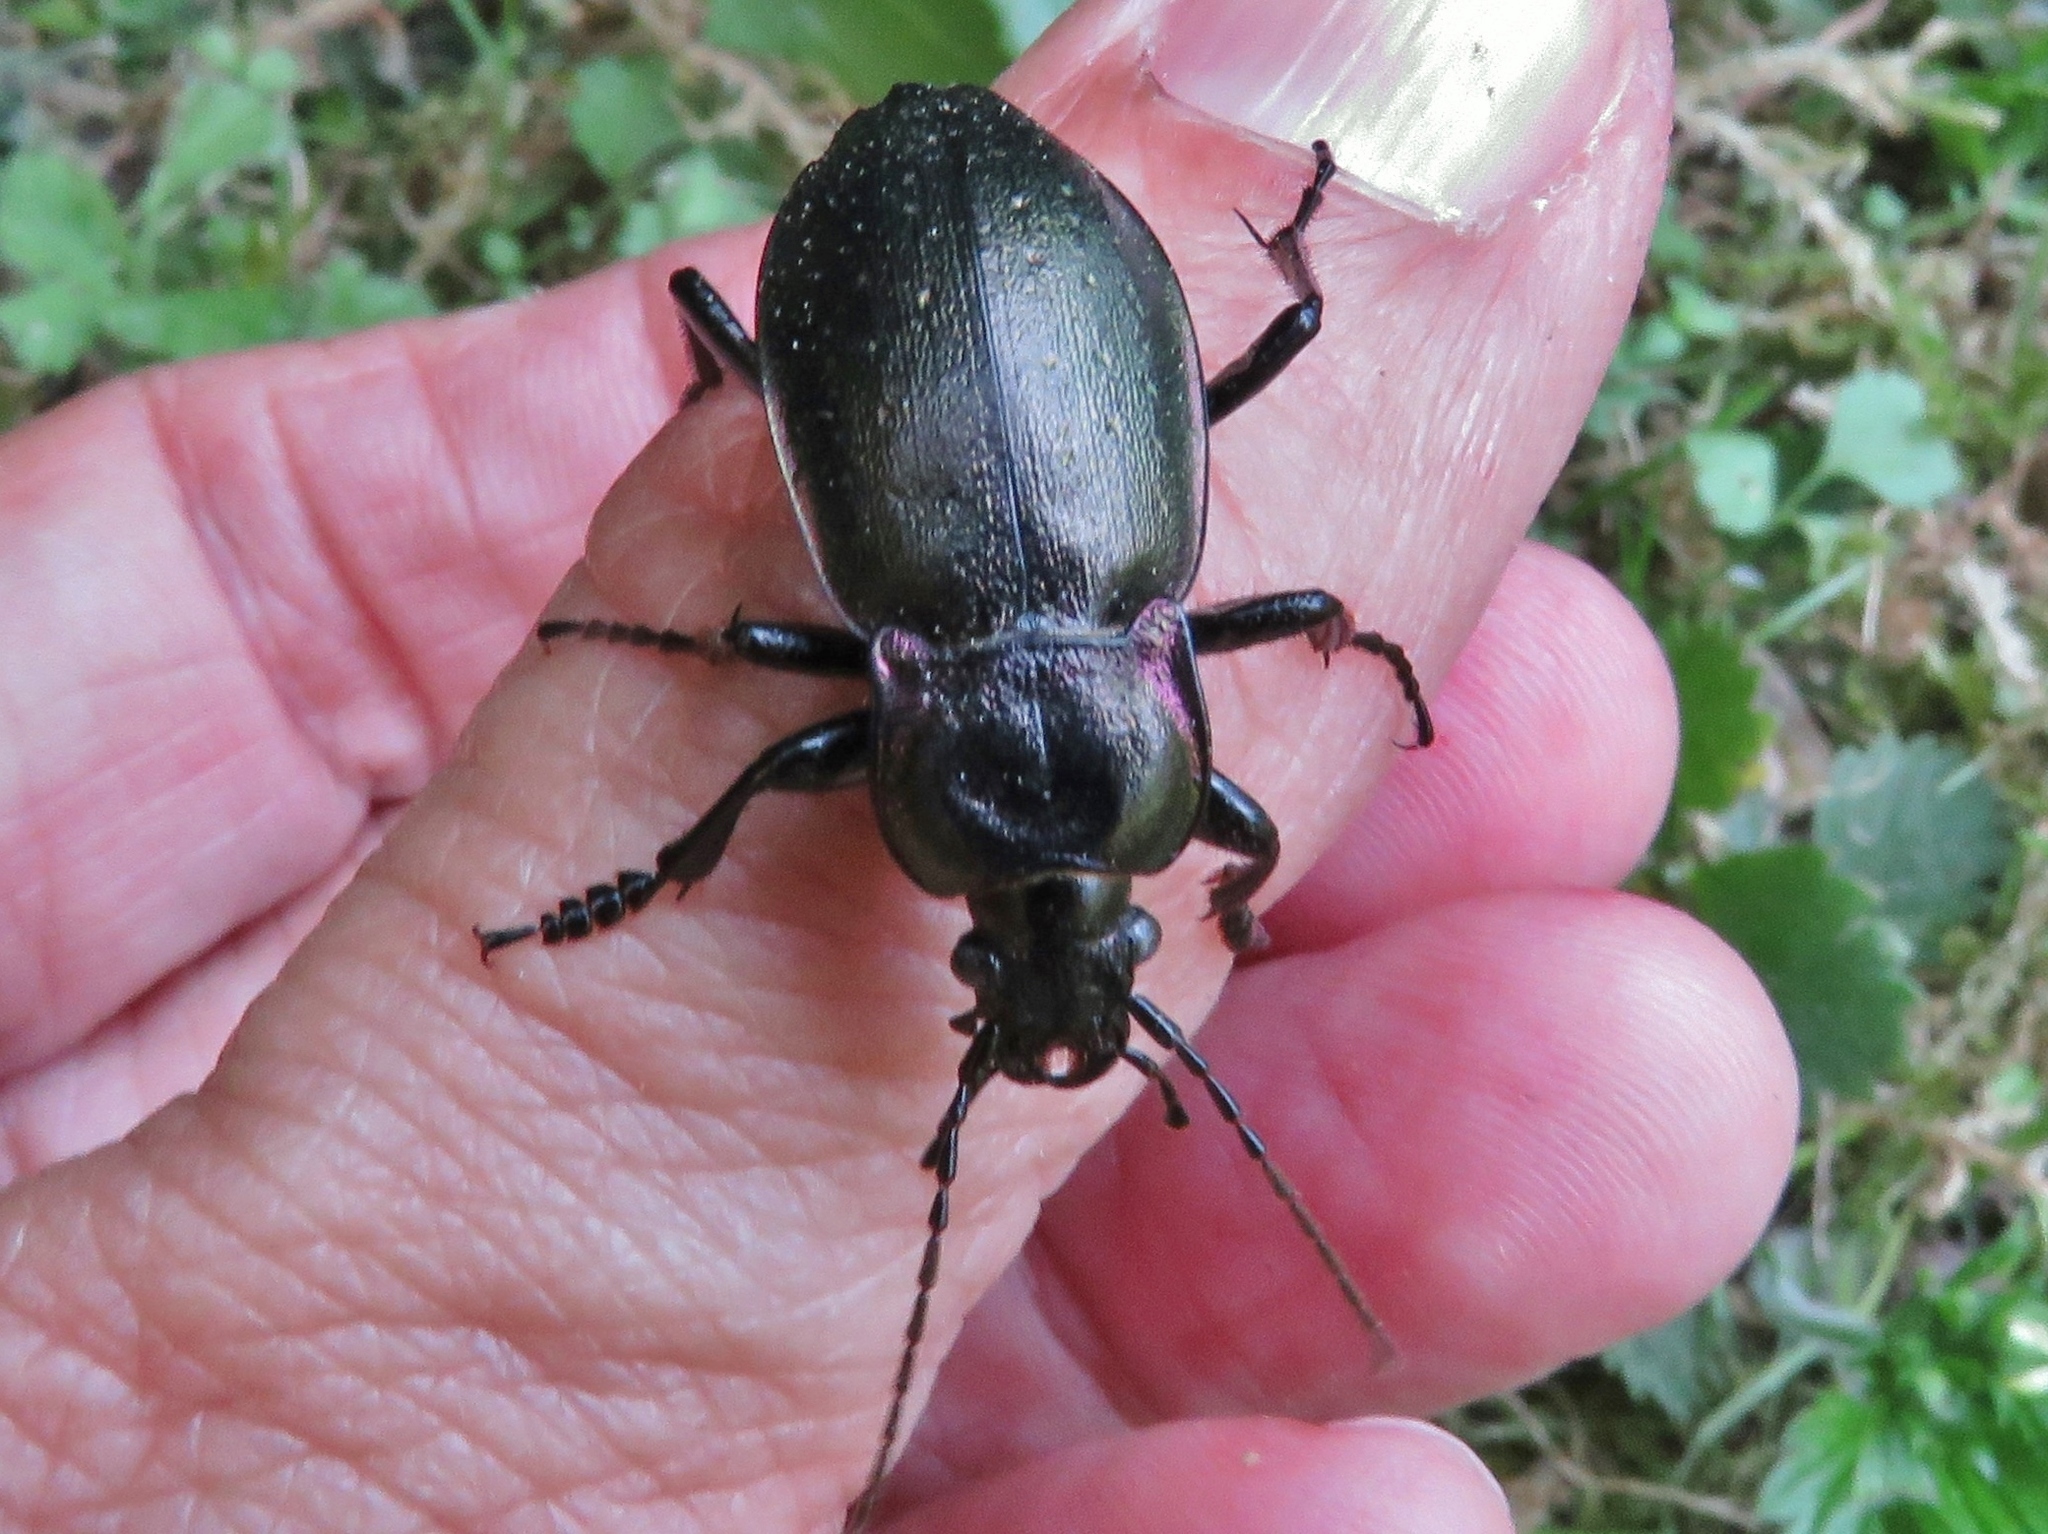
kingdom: Animalia
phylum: Arthropoda
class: Insecta
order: Coleoptera
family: Carabidae
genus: Carabus
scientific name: Carabus nemoralis
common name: European ground beetle
